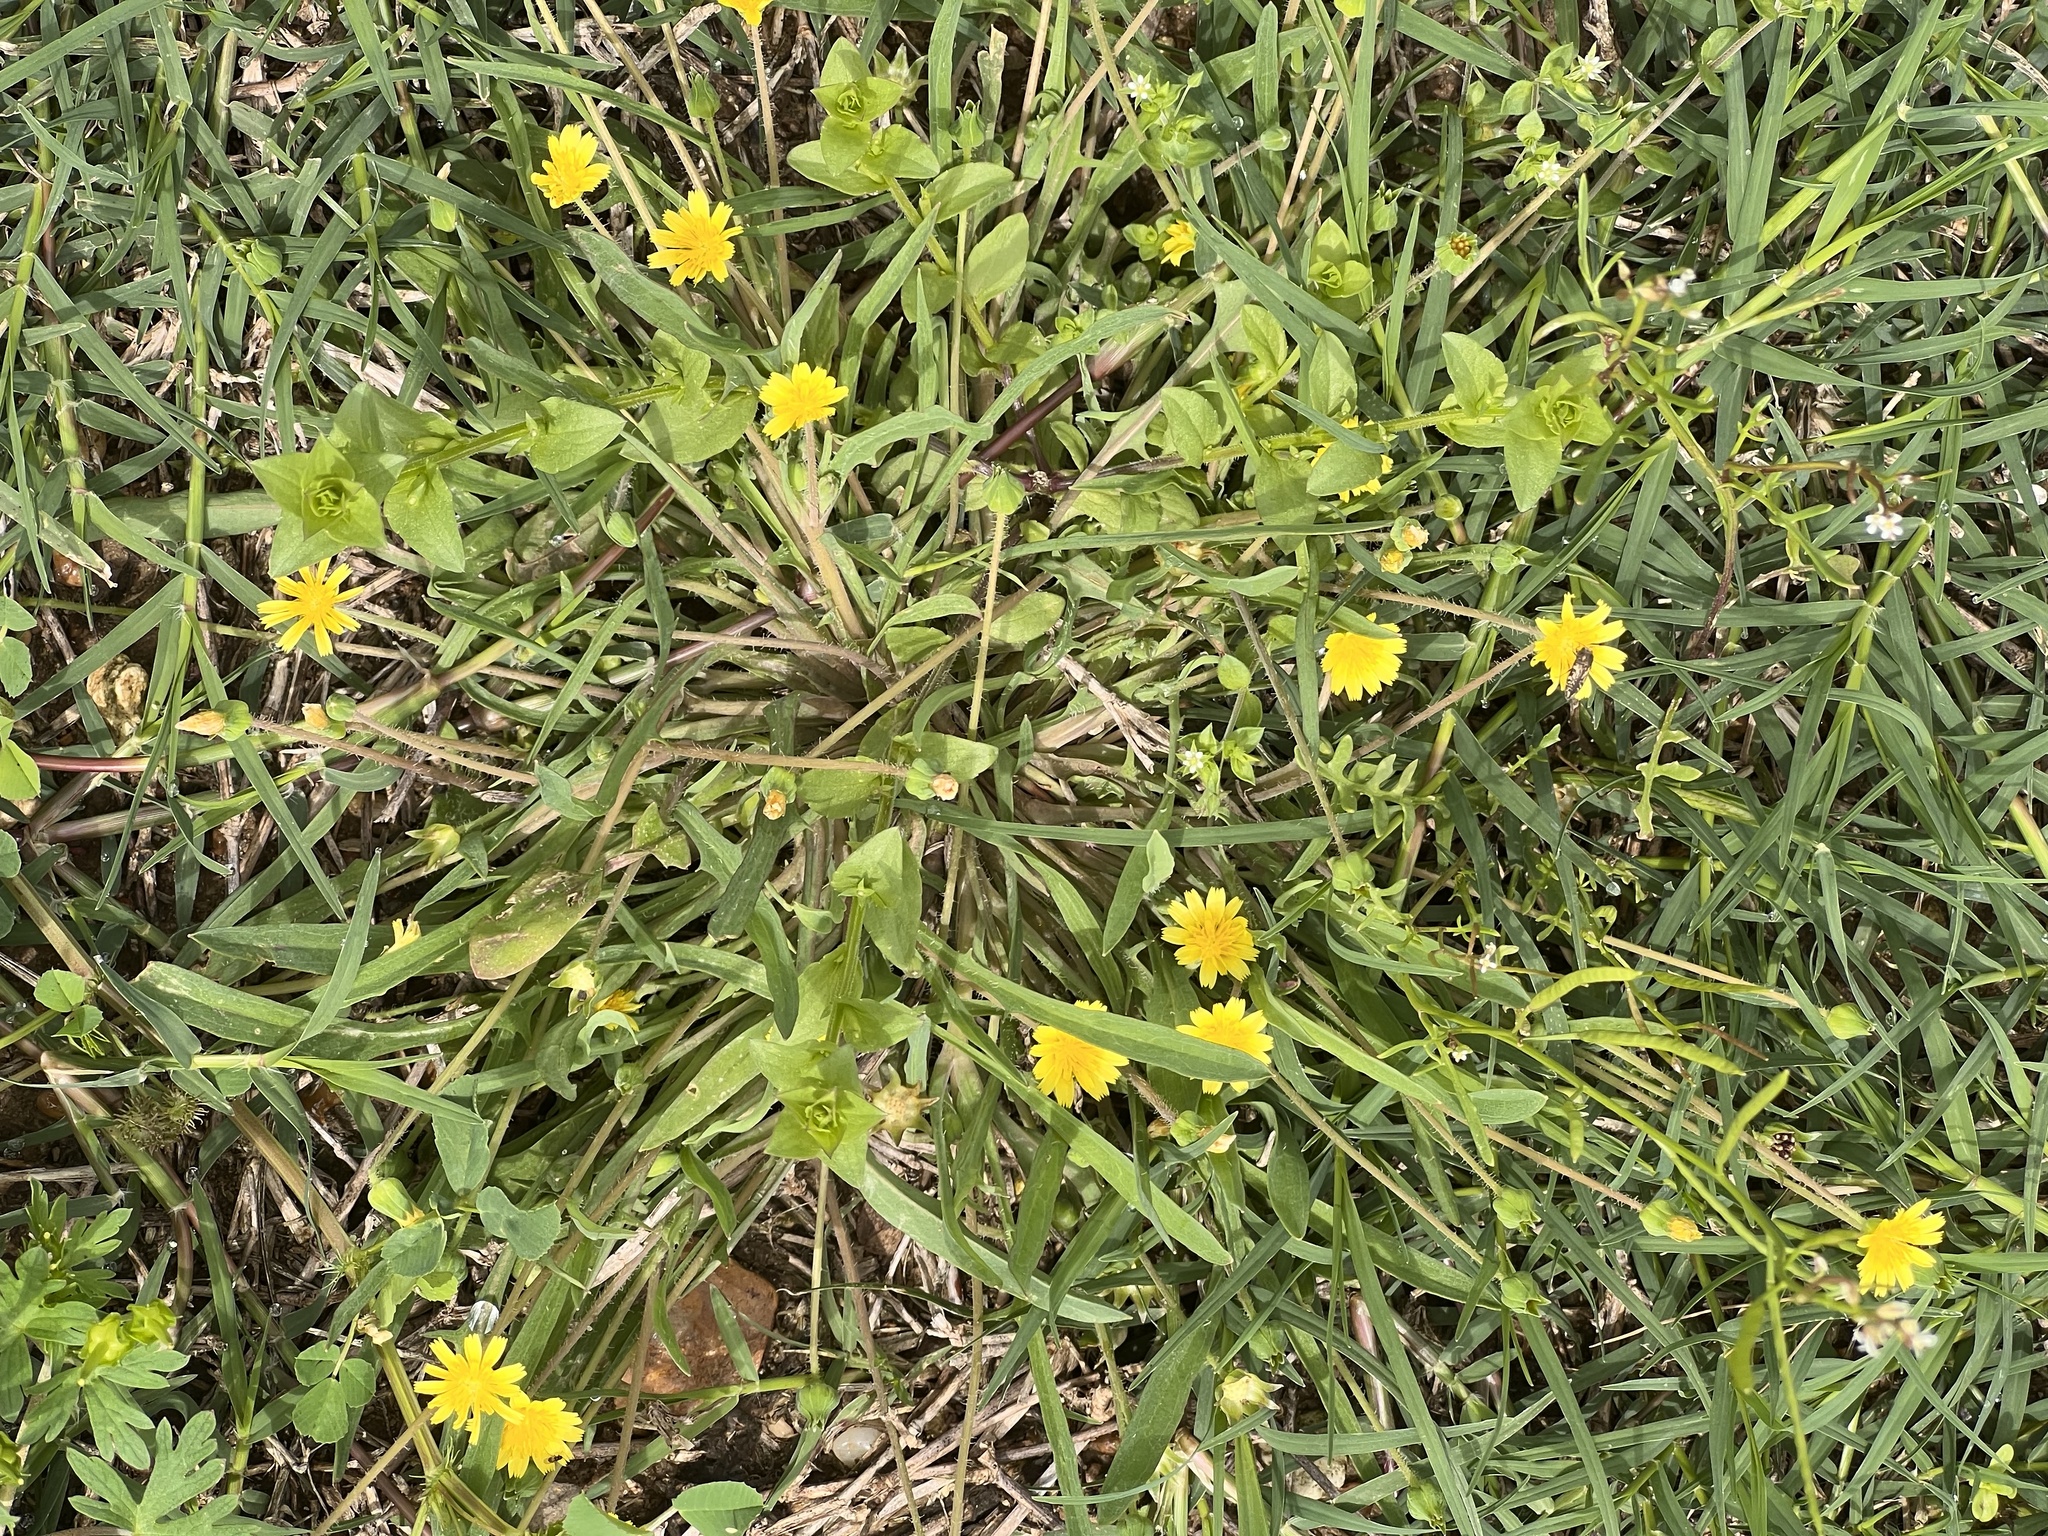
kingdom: Plantae
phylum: Tracheophyta
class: Magnoliopsida
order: Asterales
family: Asteraceae
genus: Krigia
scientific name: Krigia cespitosa
